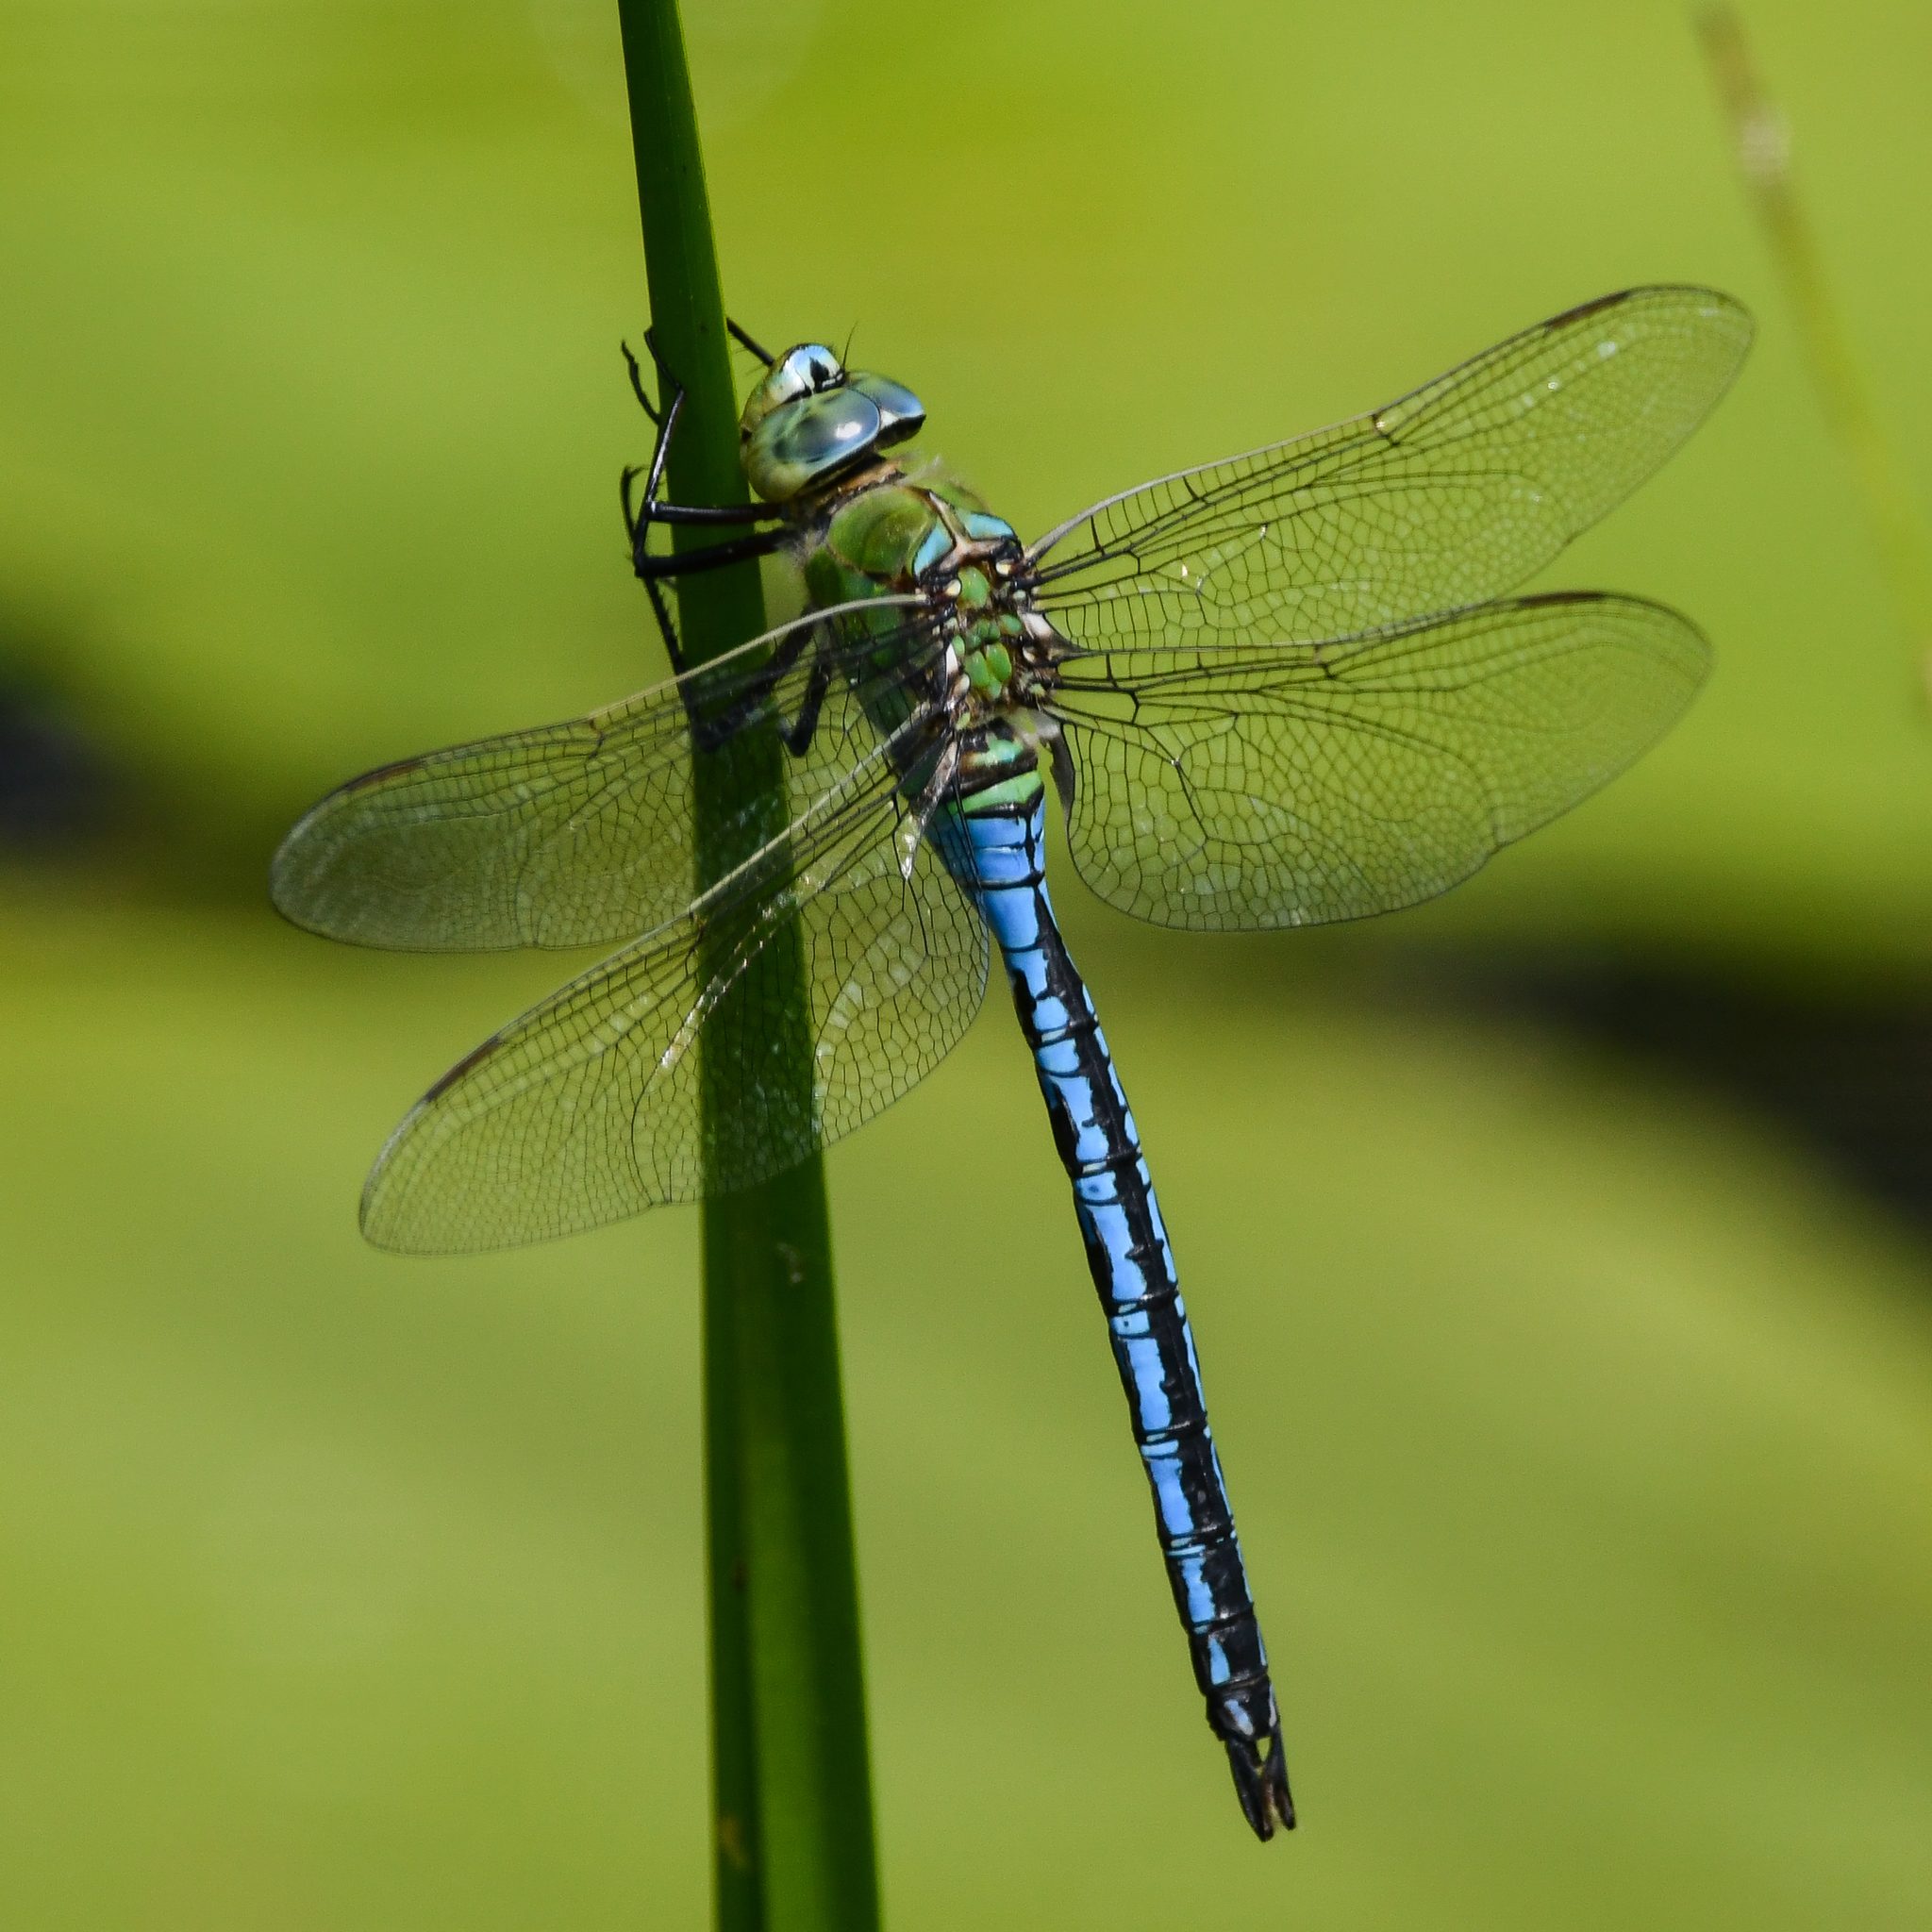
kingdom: Animalia
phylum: Arthropoda
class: Insecta
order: Odonata
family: Aeshnidae
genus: Anax
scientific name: Anax imperator
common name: Emperor dragonfly
